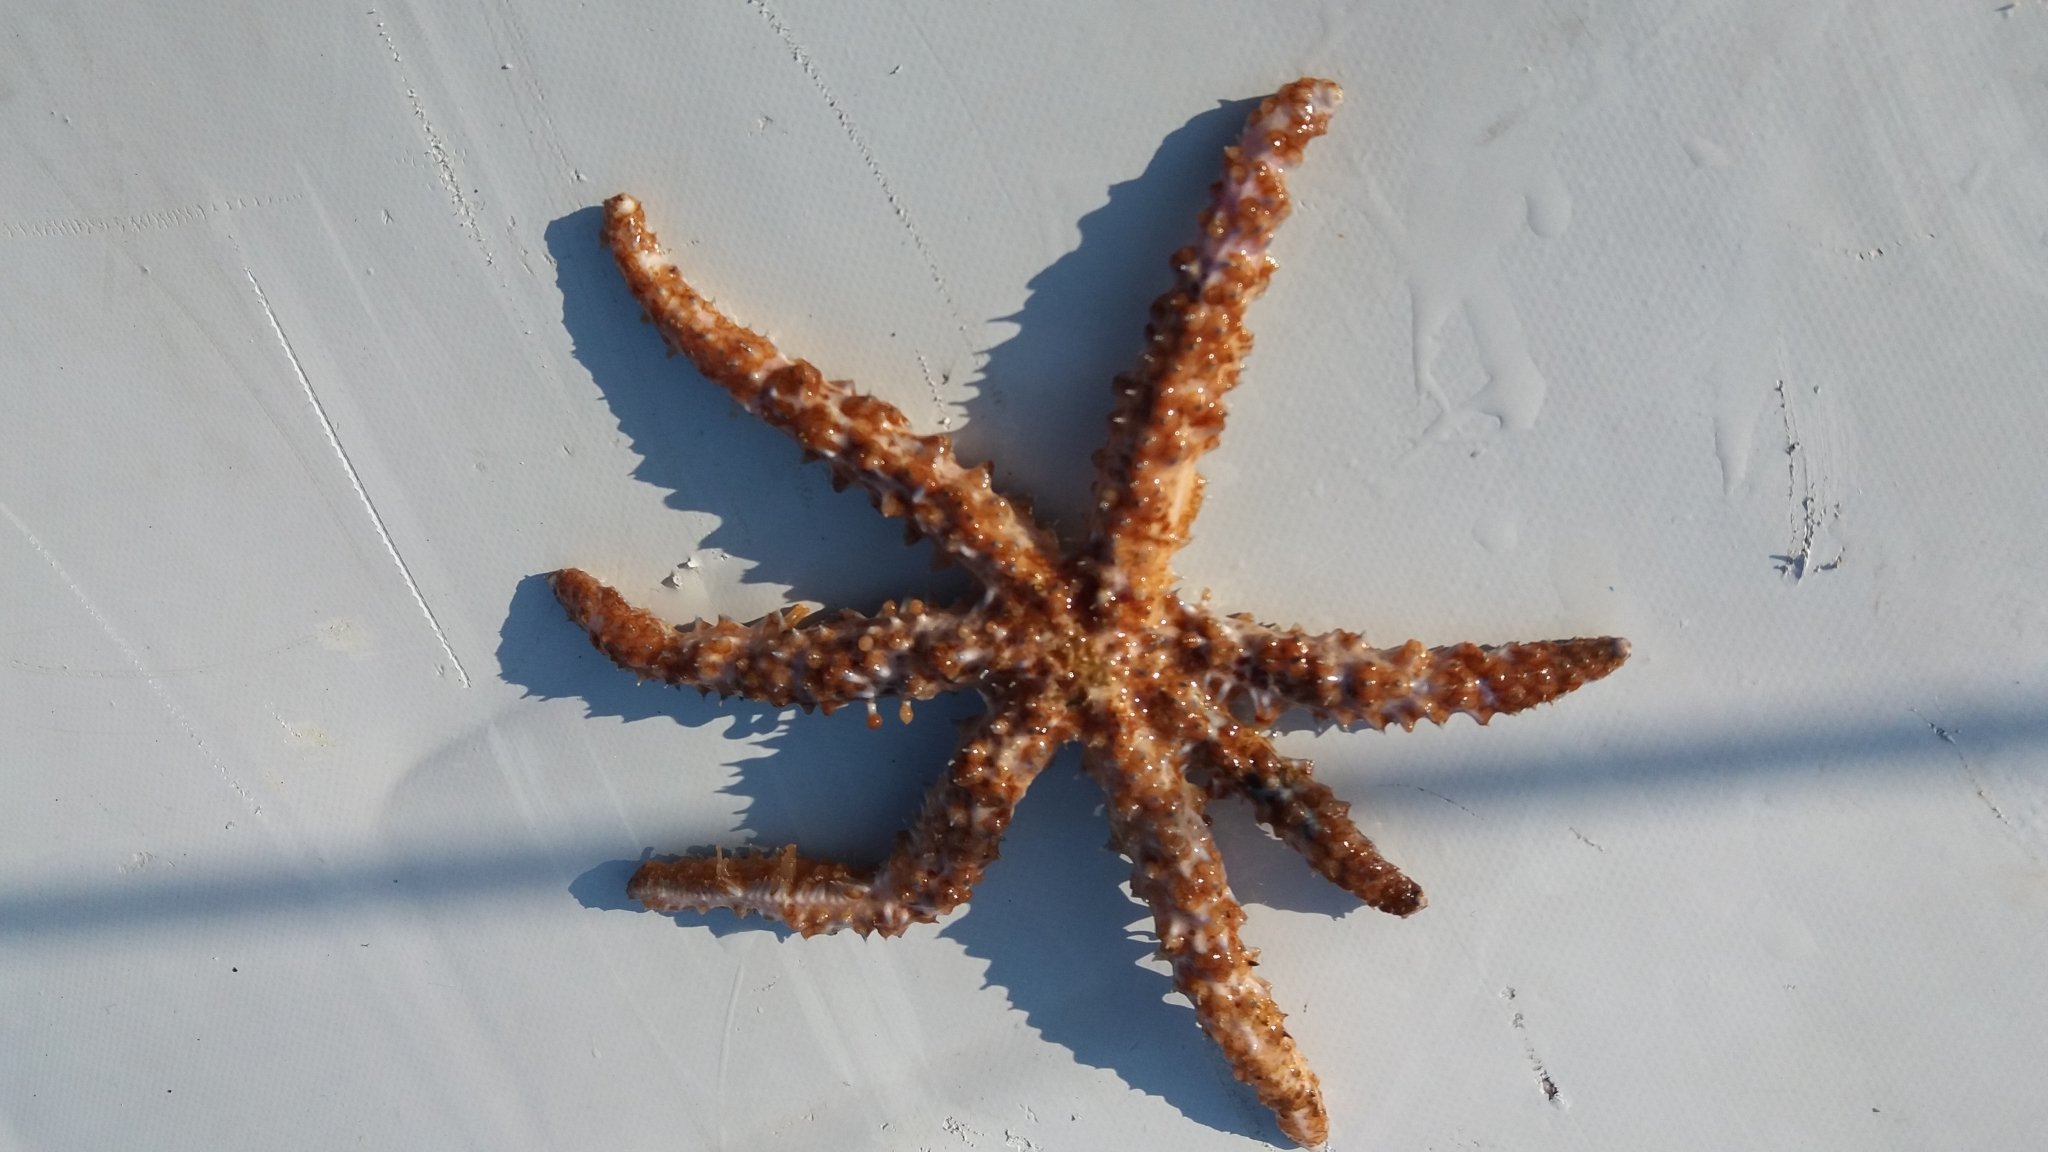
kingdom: Animalia
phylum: Echinodermata
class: Asteroidea
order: Forcipulatida
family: Asteriidae
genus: Coscinasterias
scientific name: Coscinasterias tenuispina
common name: Blue spiny starfish
